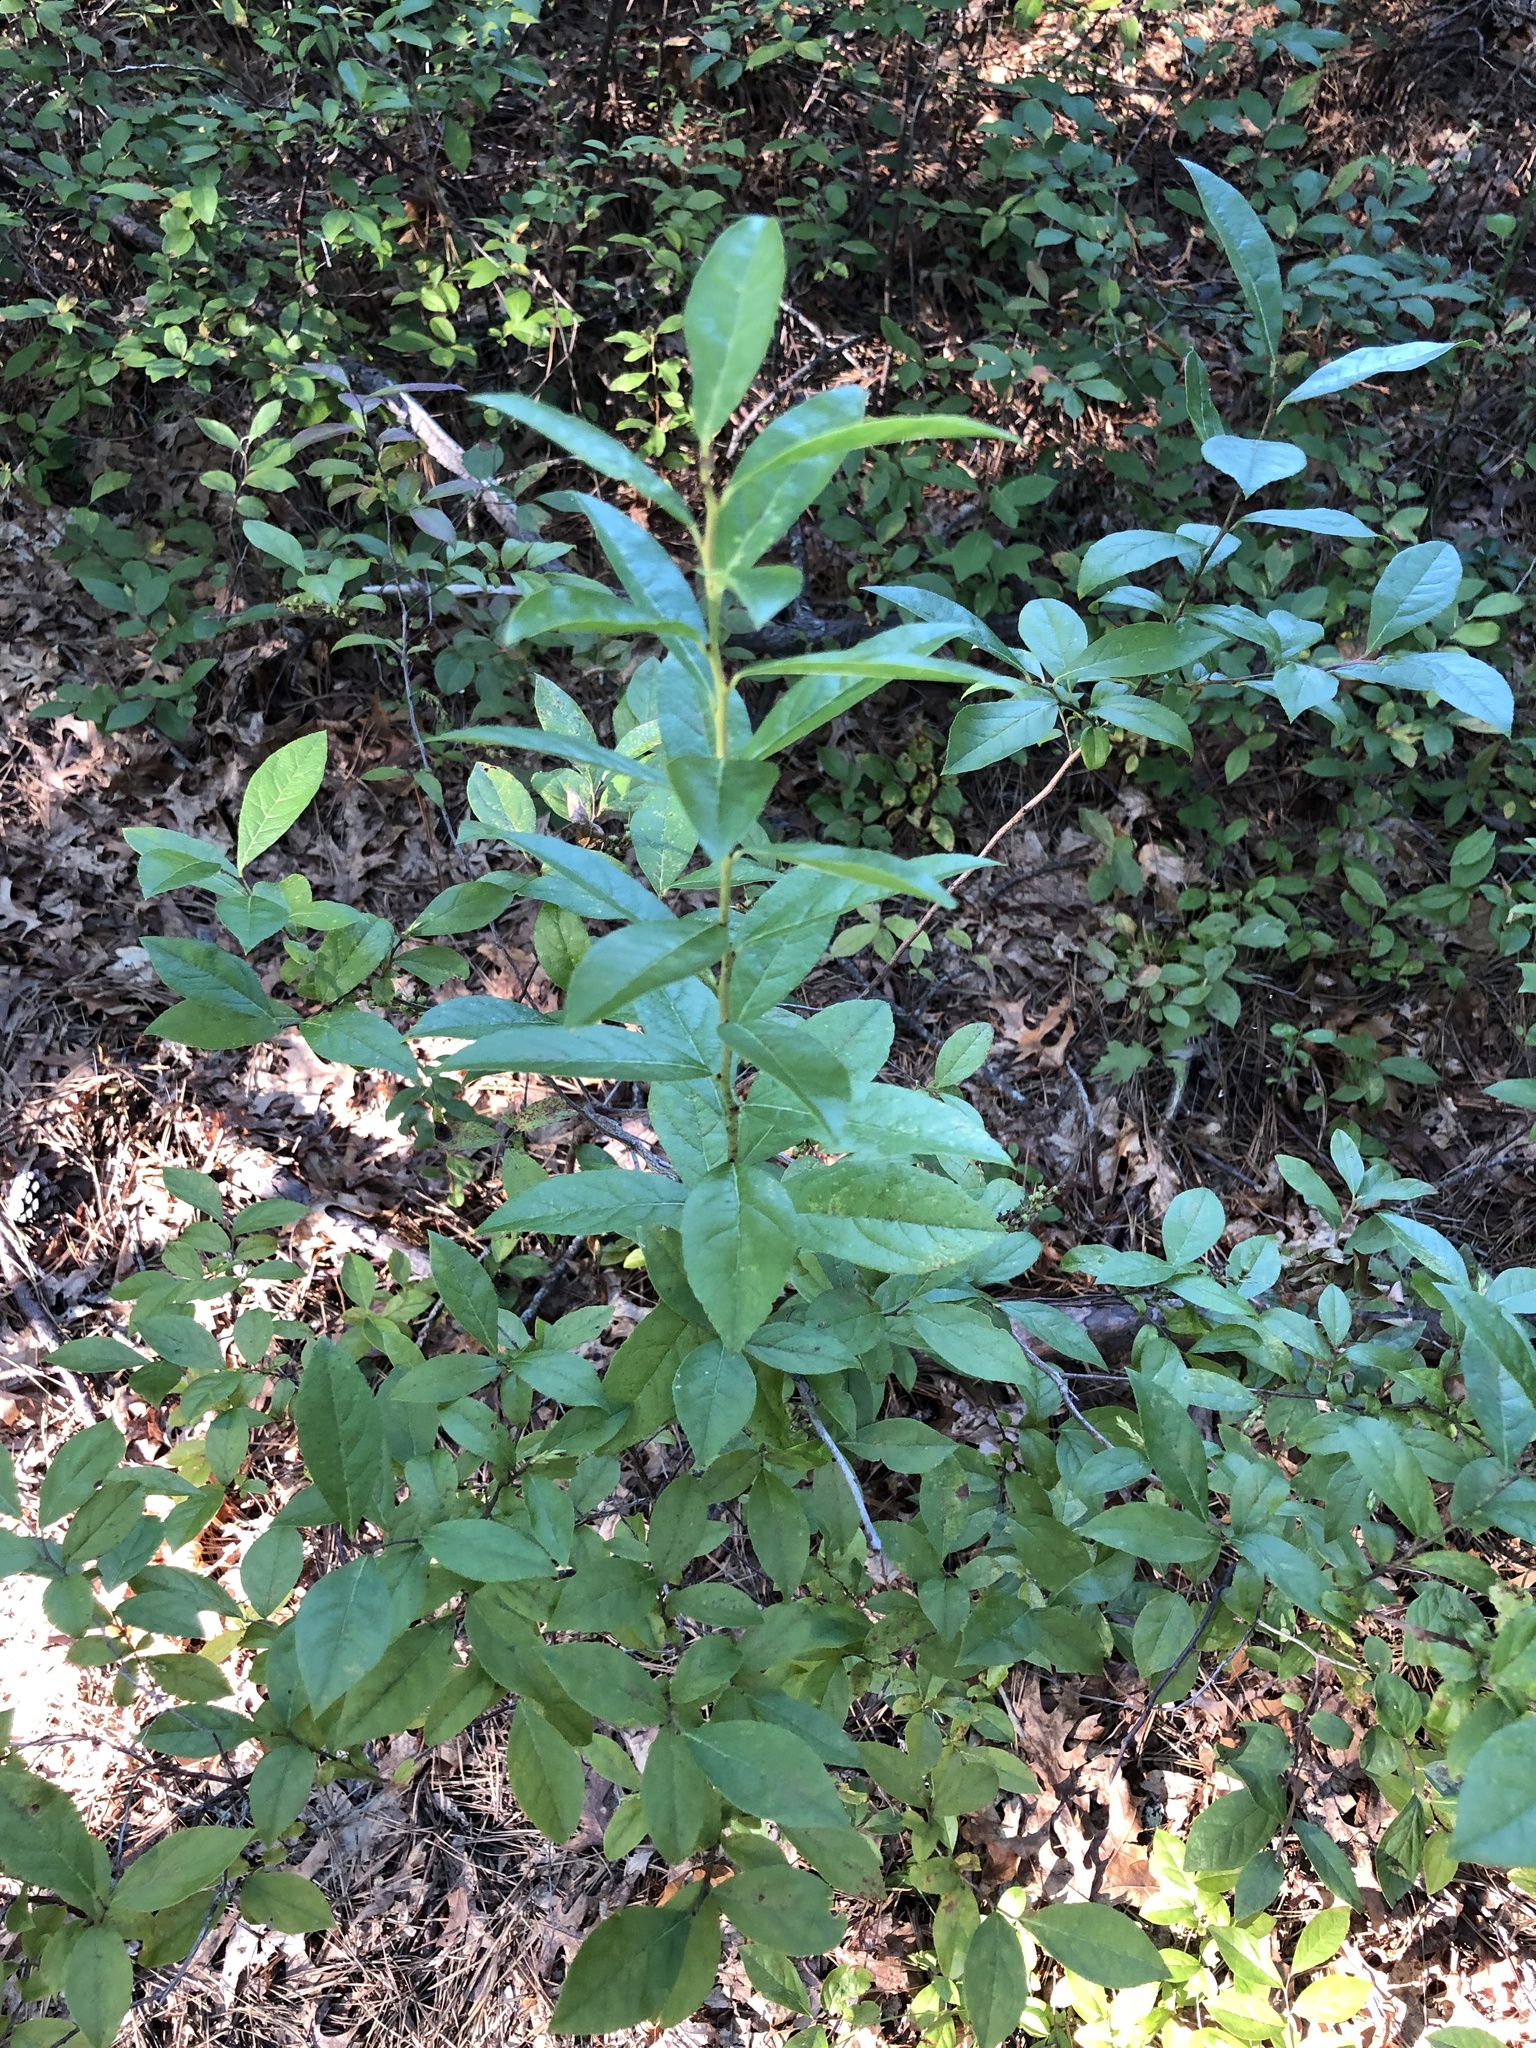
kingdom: Plantae
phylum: Tracheophyta
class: Magnoliopsida
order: Ericales
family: Ericaceae
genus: Eubotrys
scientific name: Eubotrys racemosa
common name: Fetterbush
